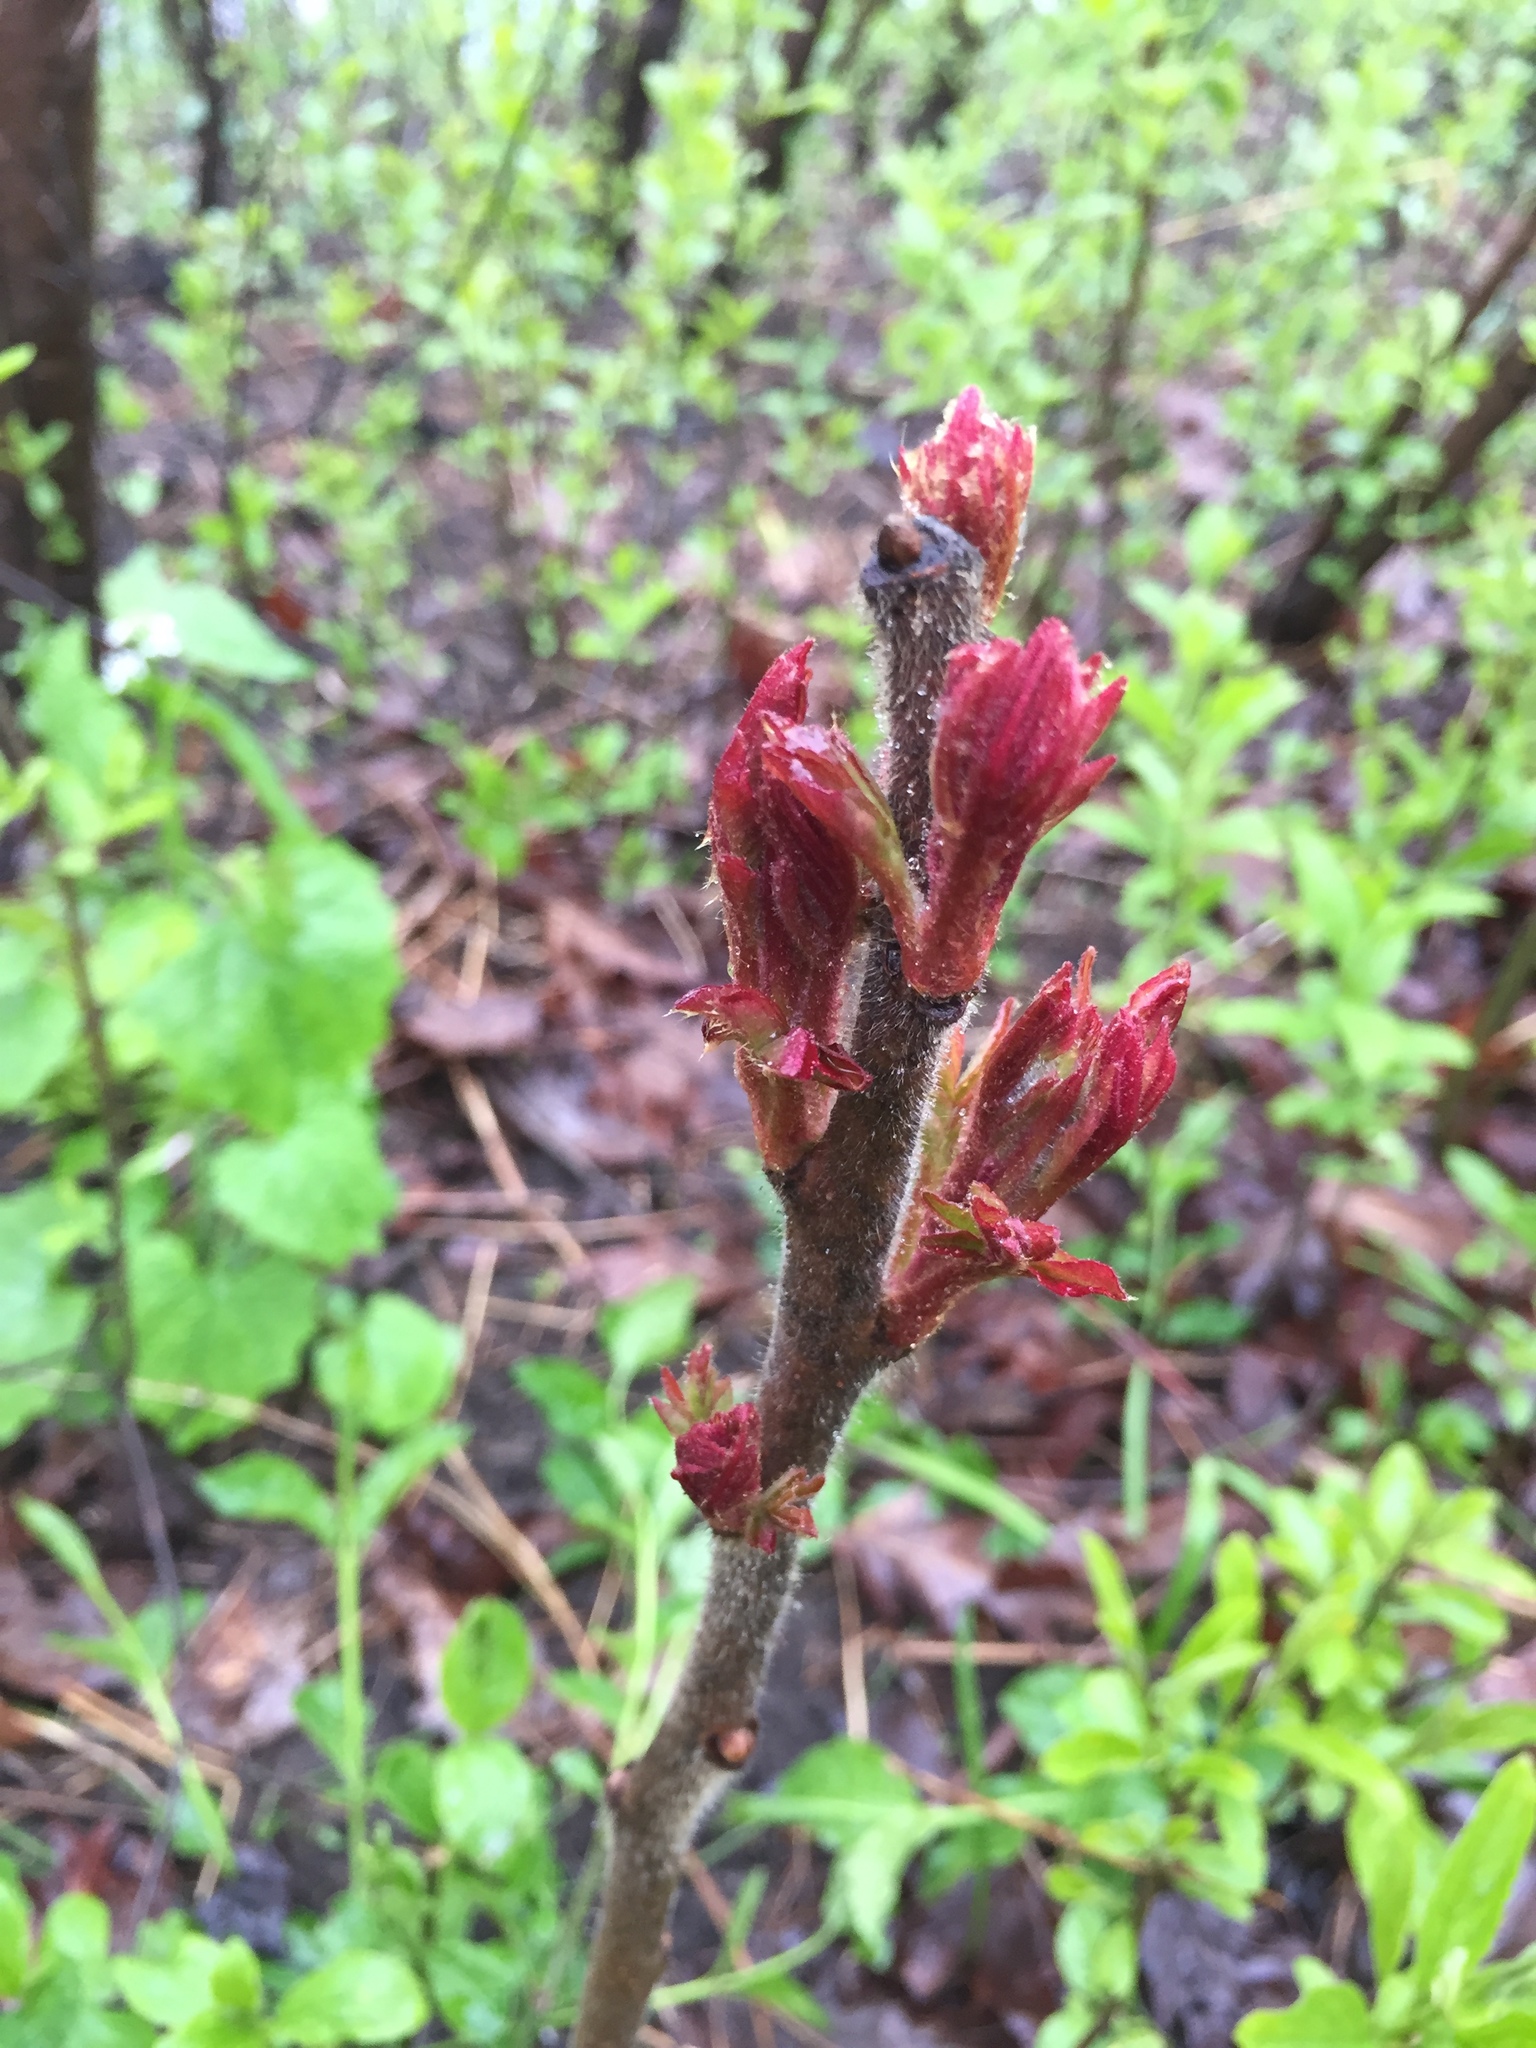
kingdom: Plantae
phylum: Tracheophyta
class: Magnoliopsida
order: Sapindales
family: Anacardiaceae
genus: Rhus
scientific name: Rhus typhina
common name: Staghorn sumac
